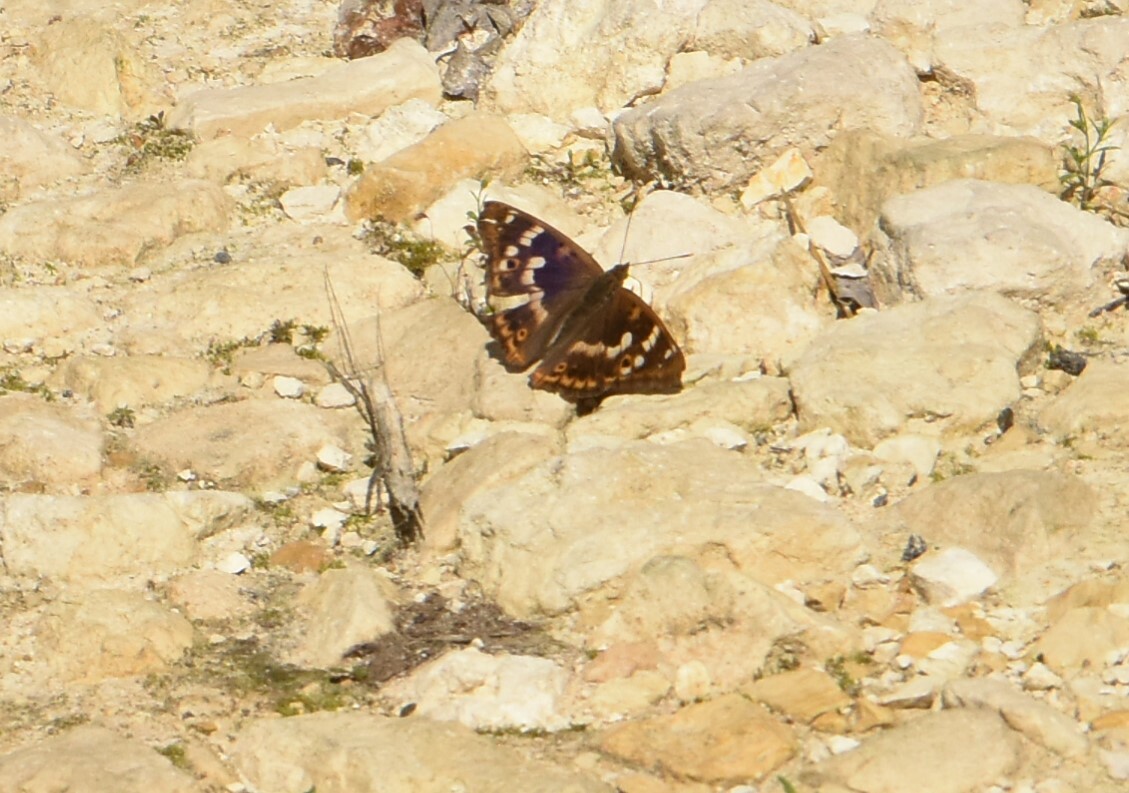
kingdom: Animalia
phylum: Arthropoda
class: Insecta
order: Lepidoptera
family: Nymphalidae
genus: Apatura
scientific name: Apatura ilia
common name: Lesser purple emperor
